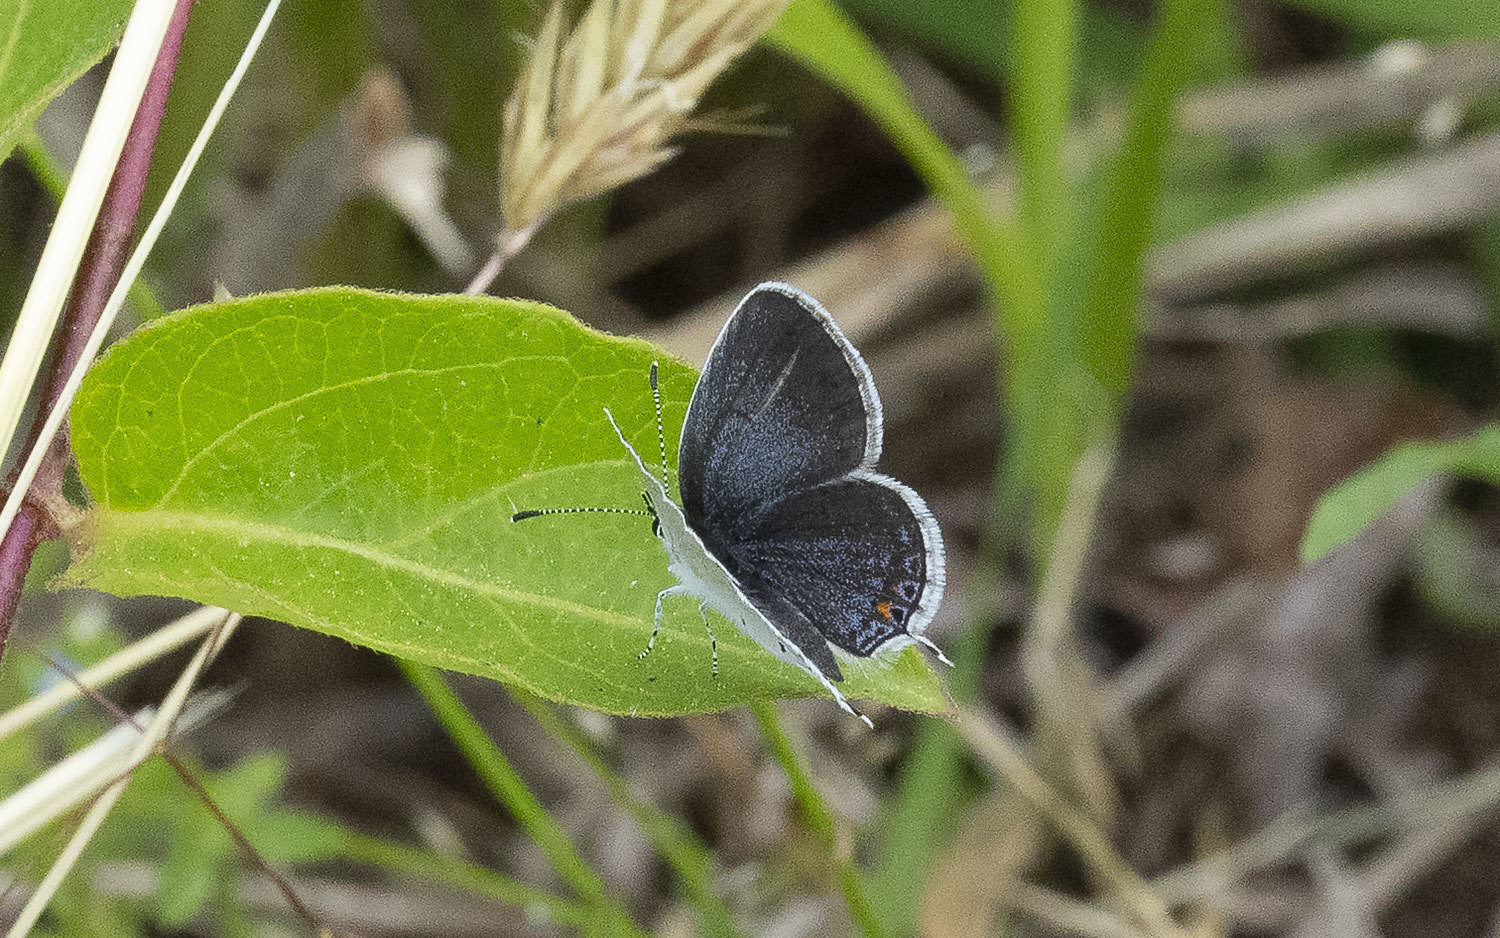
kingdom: Animalia
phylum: Arthropoda
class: Insecta
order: Lepidoptera
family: Lycaenidae
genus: Elkalyce
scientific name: Elkalyce comyntas
